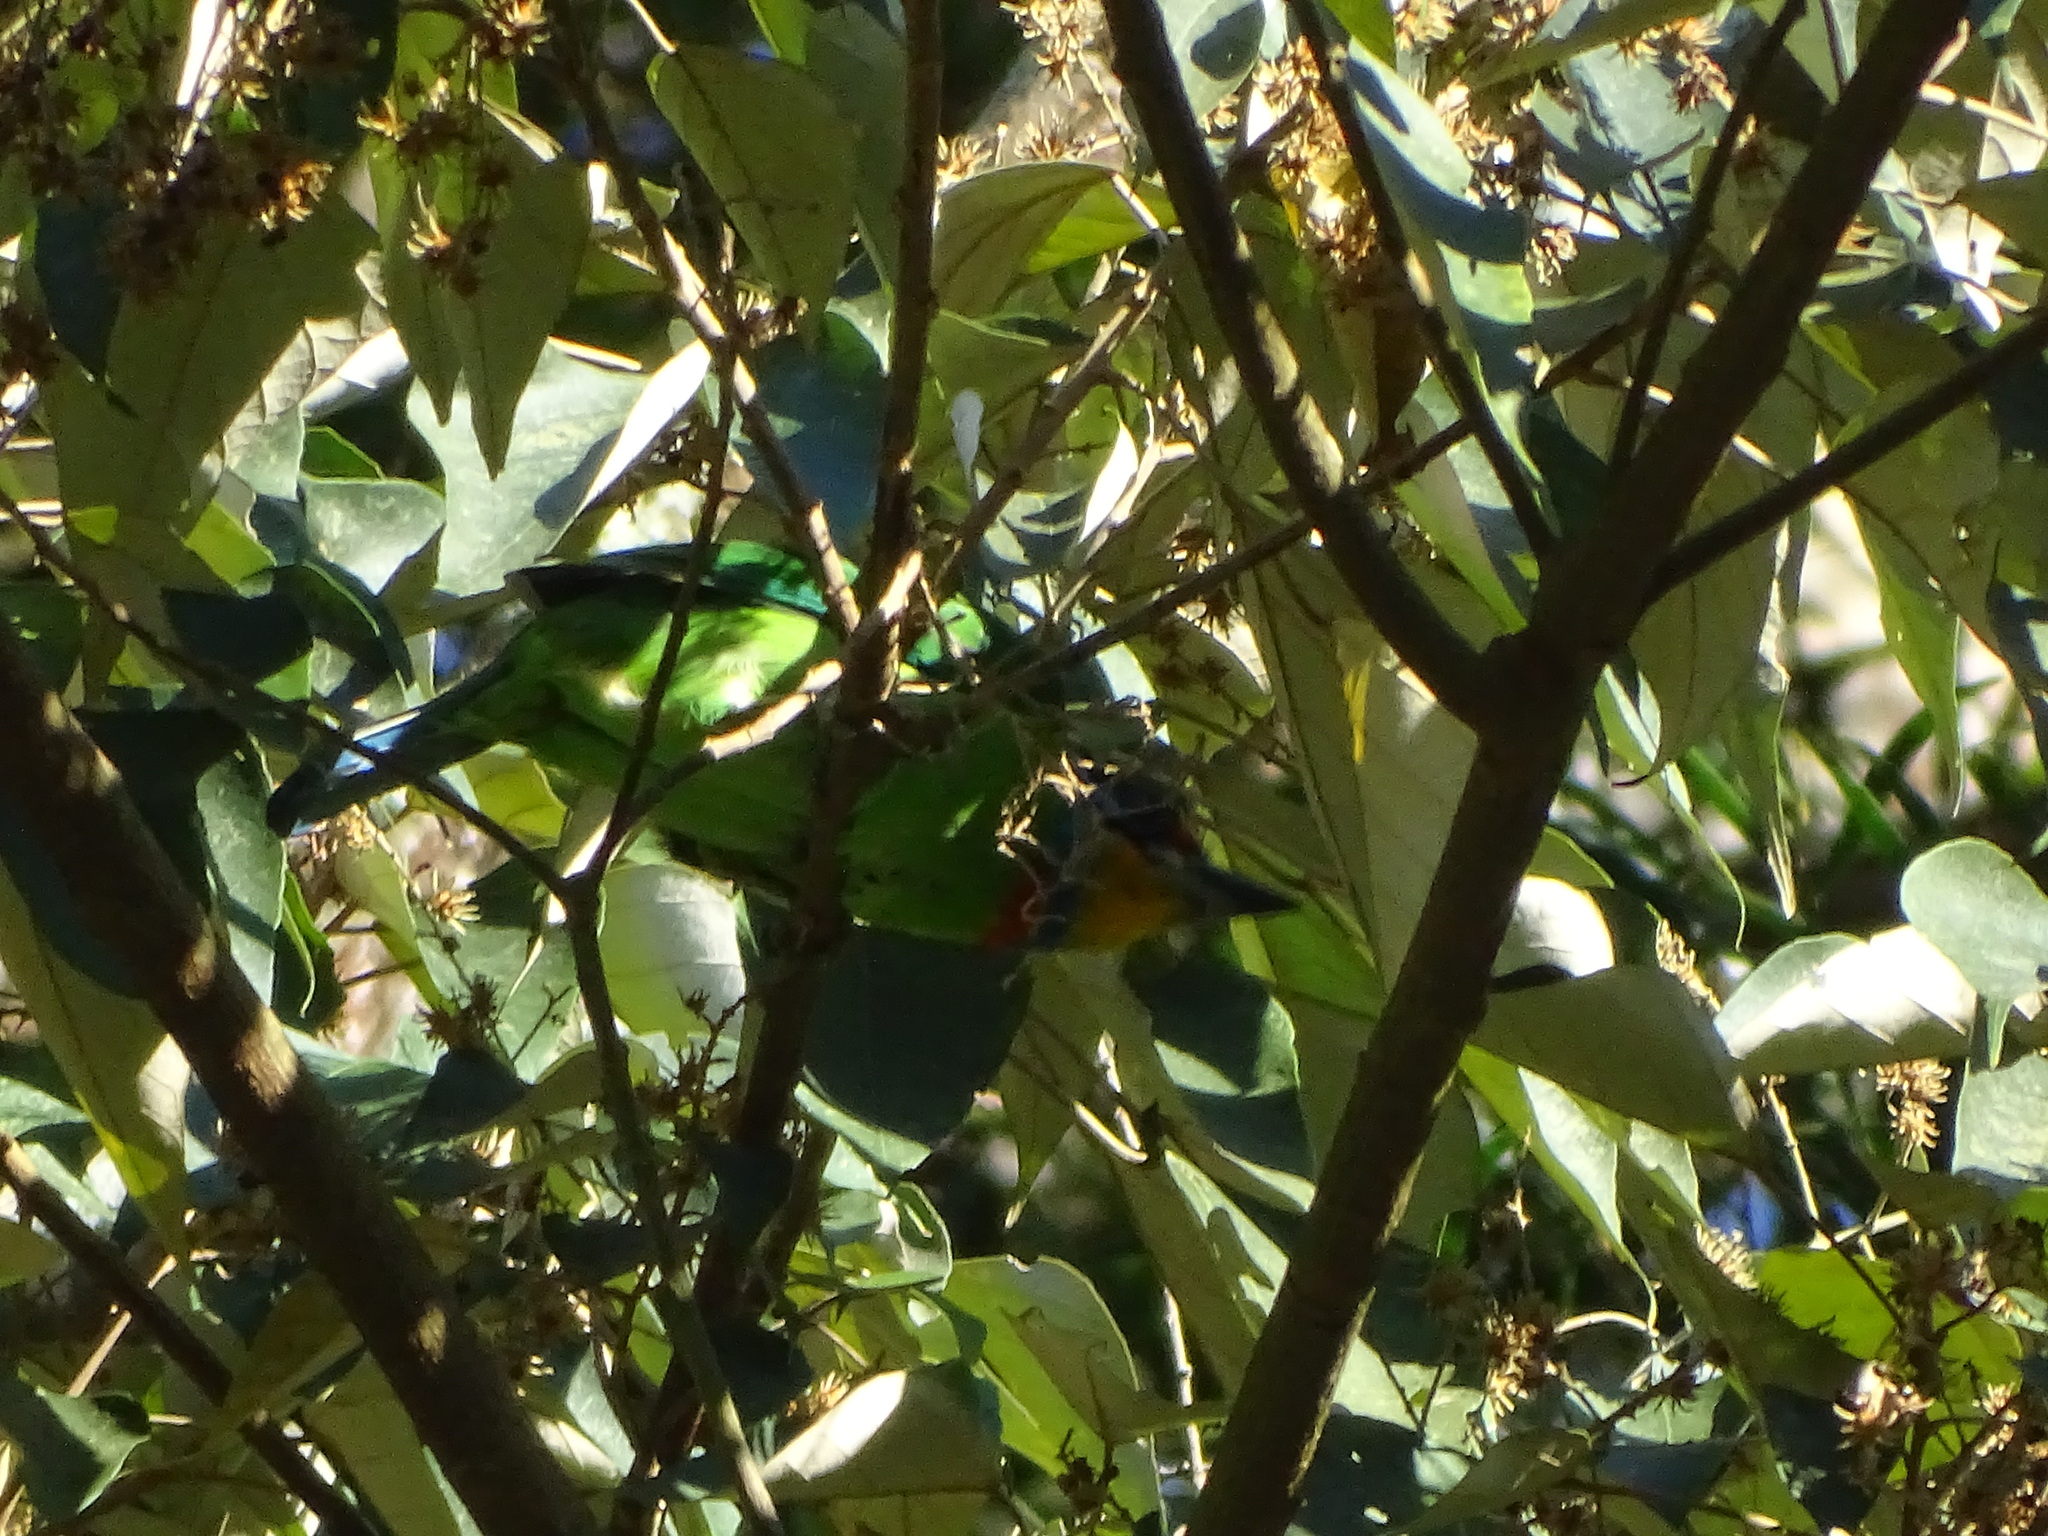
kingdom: Animalia
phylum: Chordata
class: Aves
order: Piciformes
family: Megalaimidae
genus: Psilopogon
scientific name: Psilopogon nuchalis
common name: Taiwan barbet
